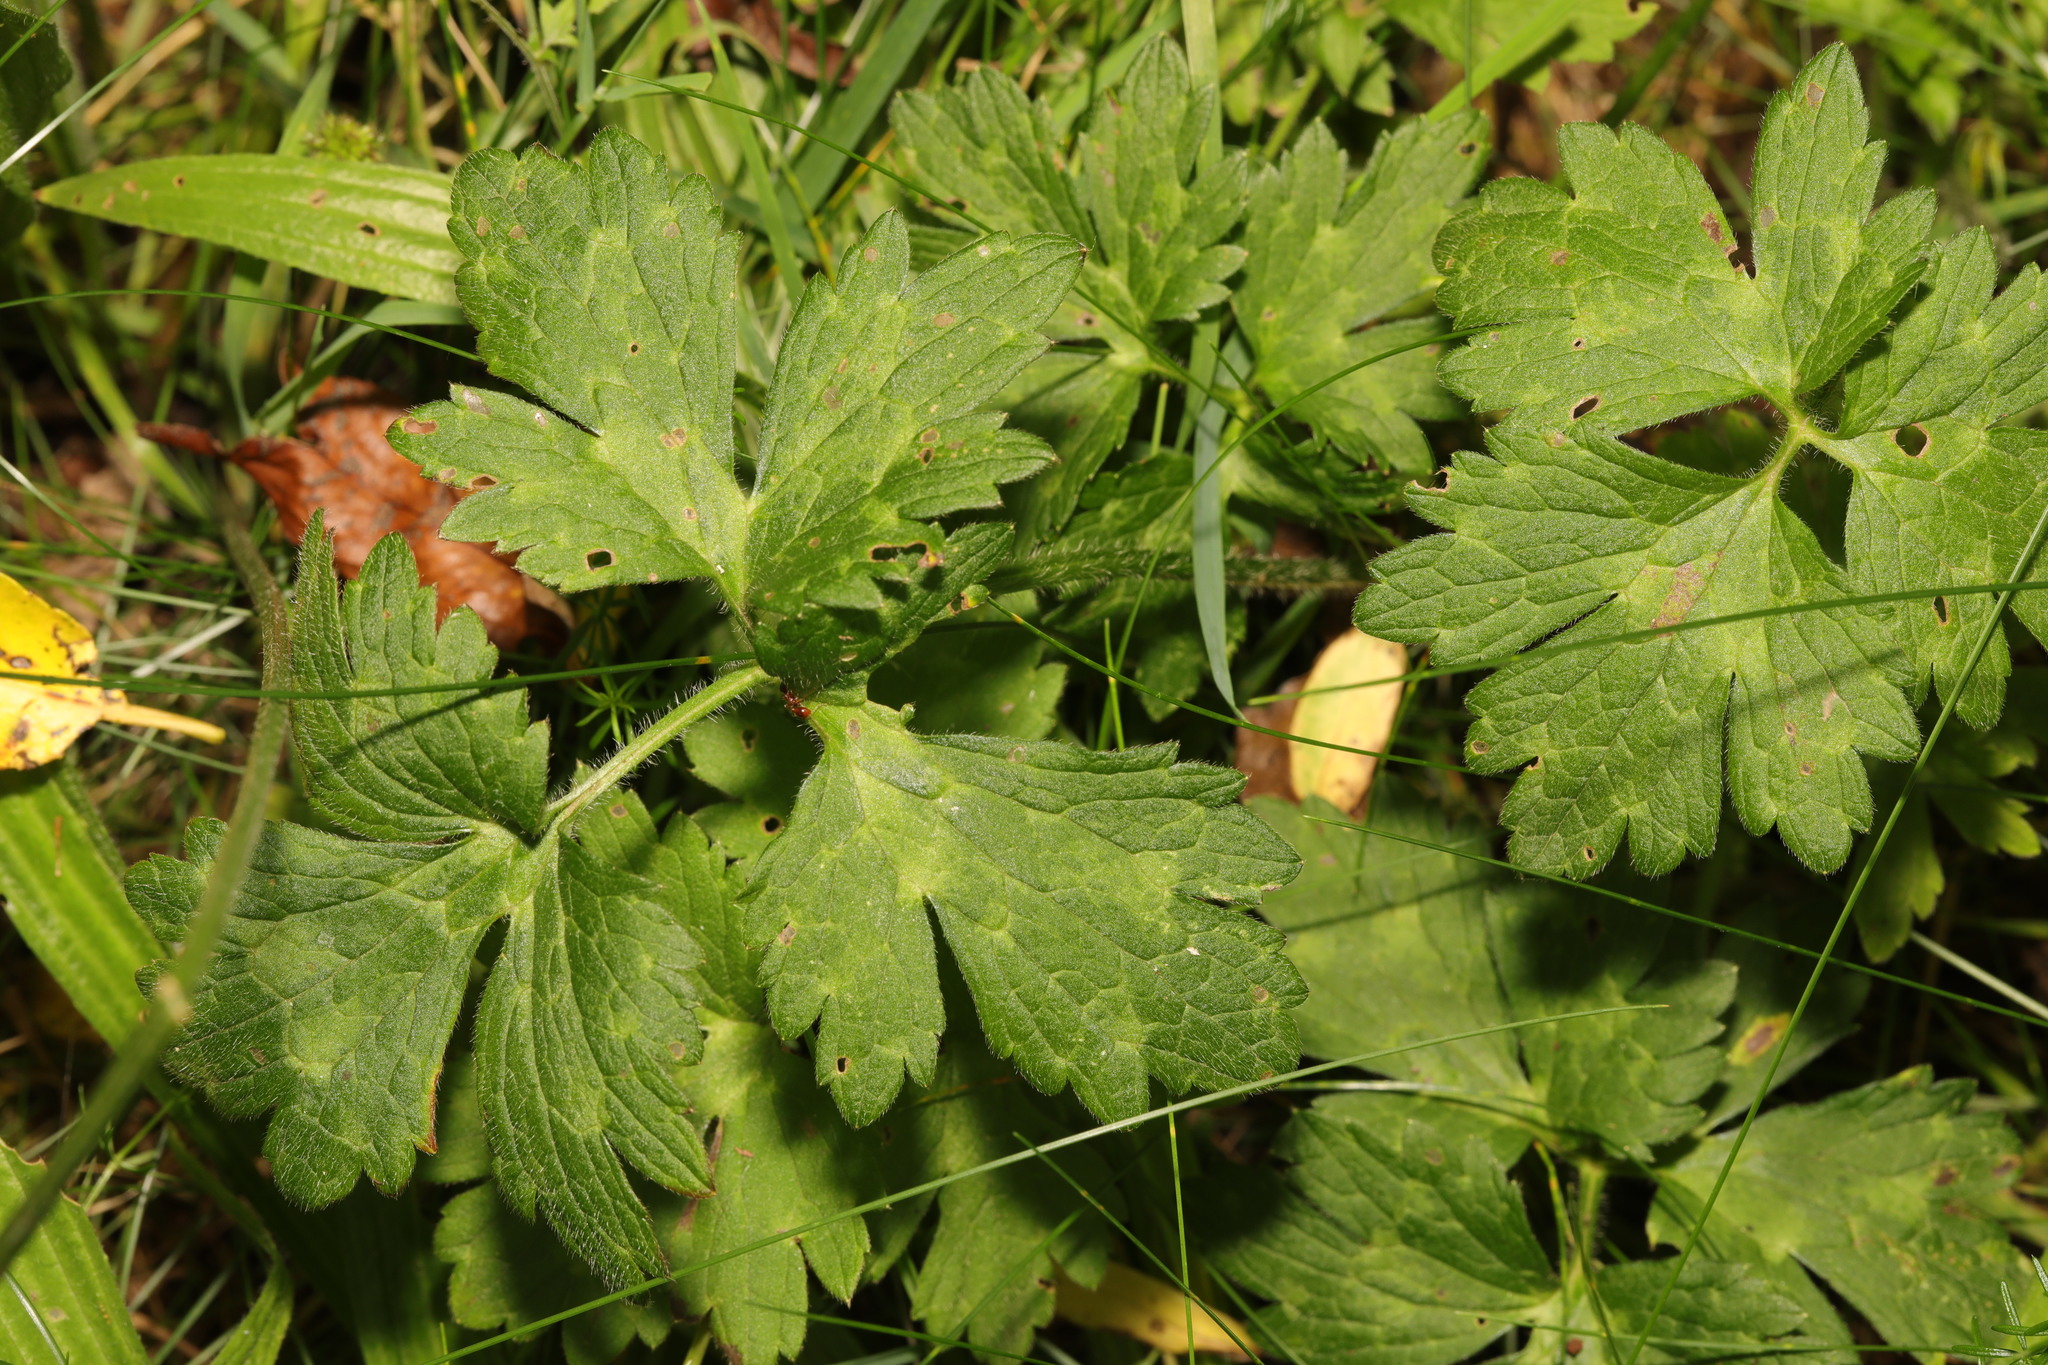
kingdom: Plantae
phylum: Tracheophyta
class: Magnoliopsida
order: Ranunculales
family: Ranunculaceae
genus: Ranunculus
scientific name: Ranunculus repens
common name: Creeping buttercup
